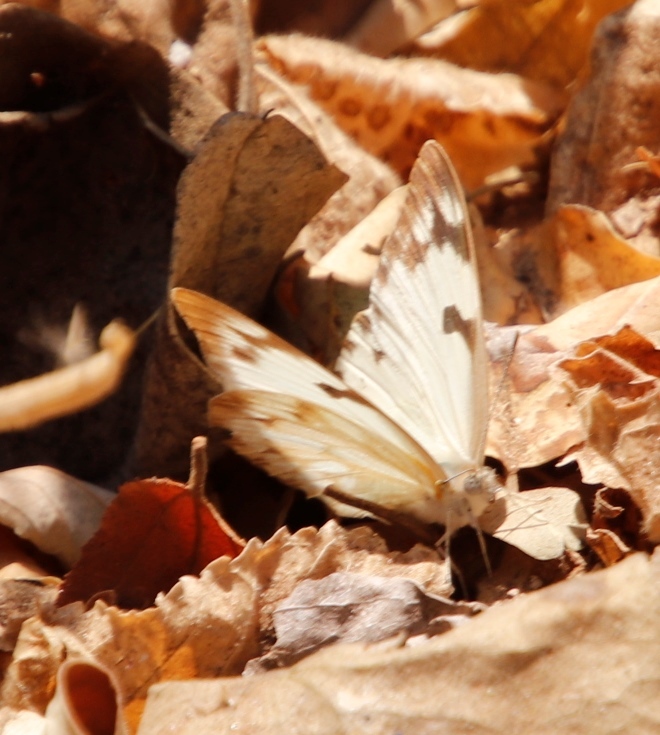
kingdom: Animalia
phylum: Arthropoda
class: Insecta
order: Lepidoptera
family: Pieridae
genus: Belenois
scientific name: Belenois gidica
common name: Pointed caper white
